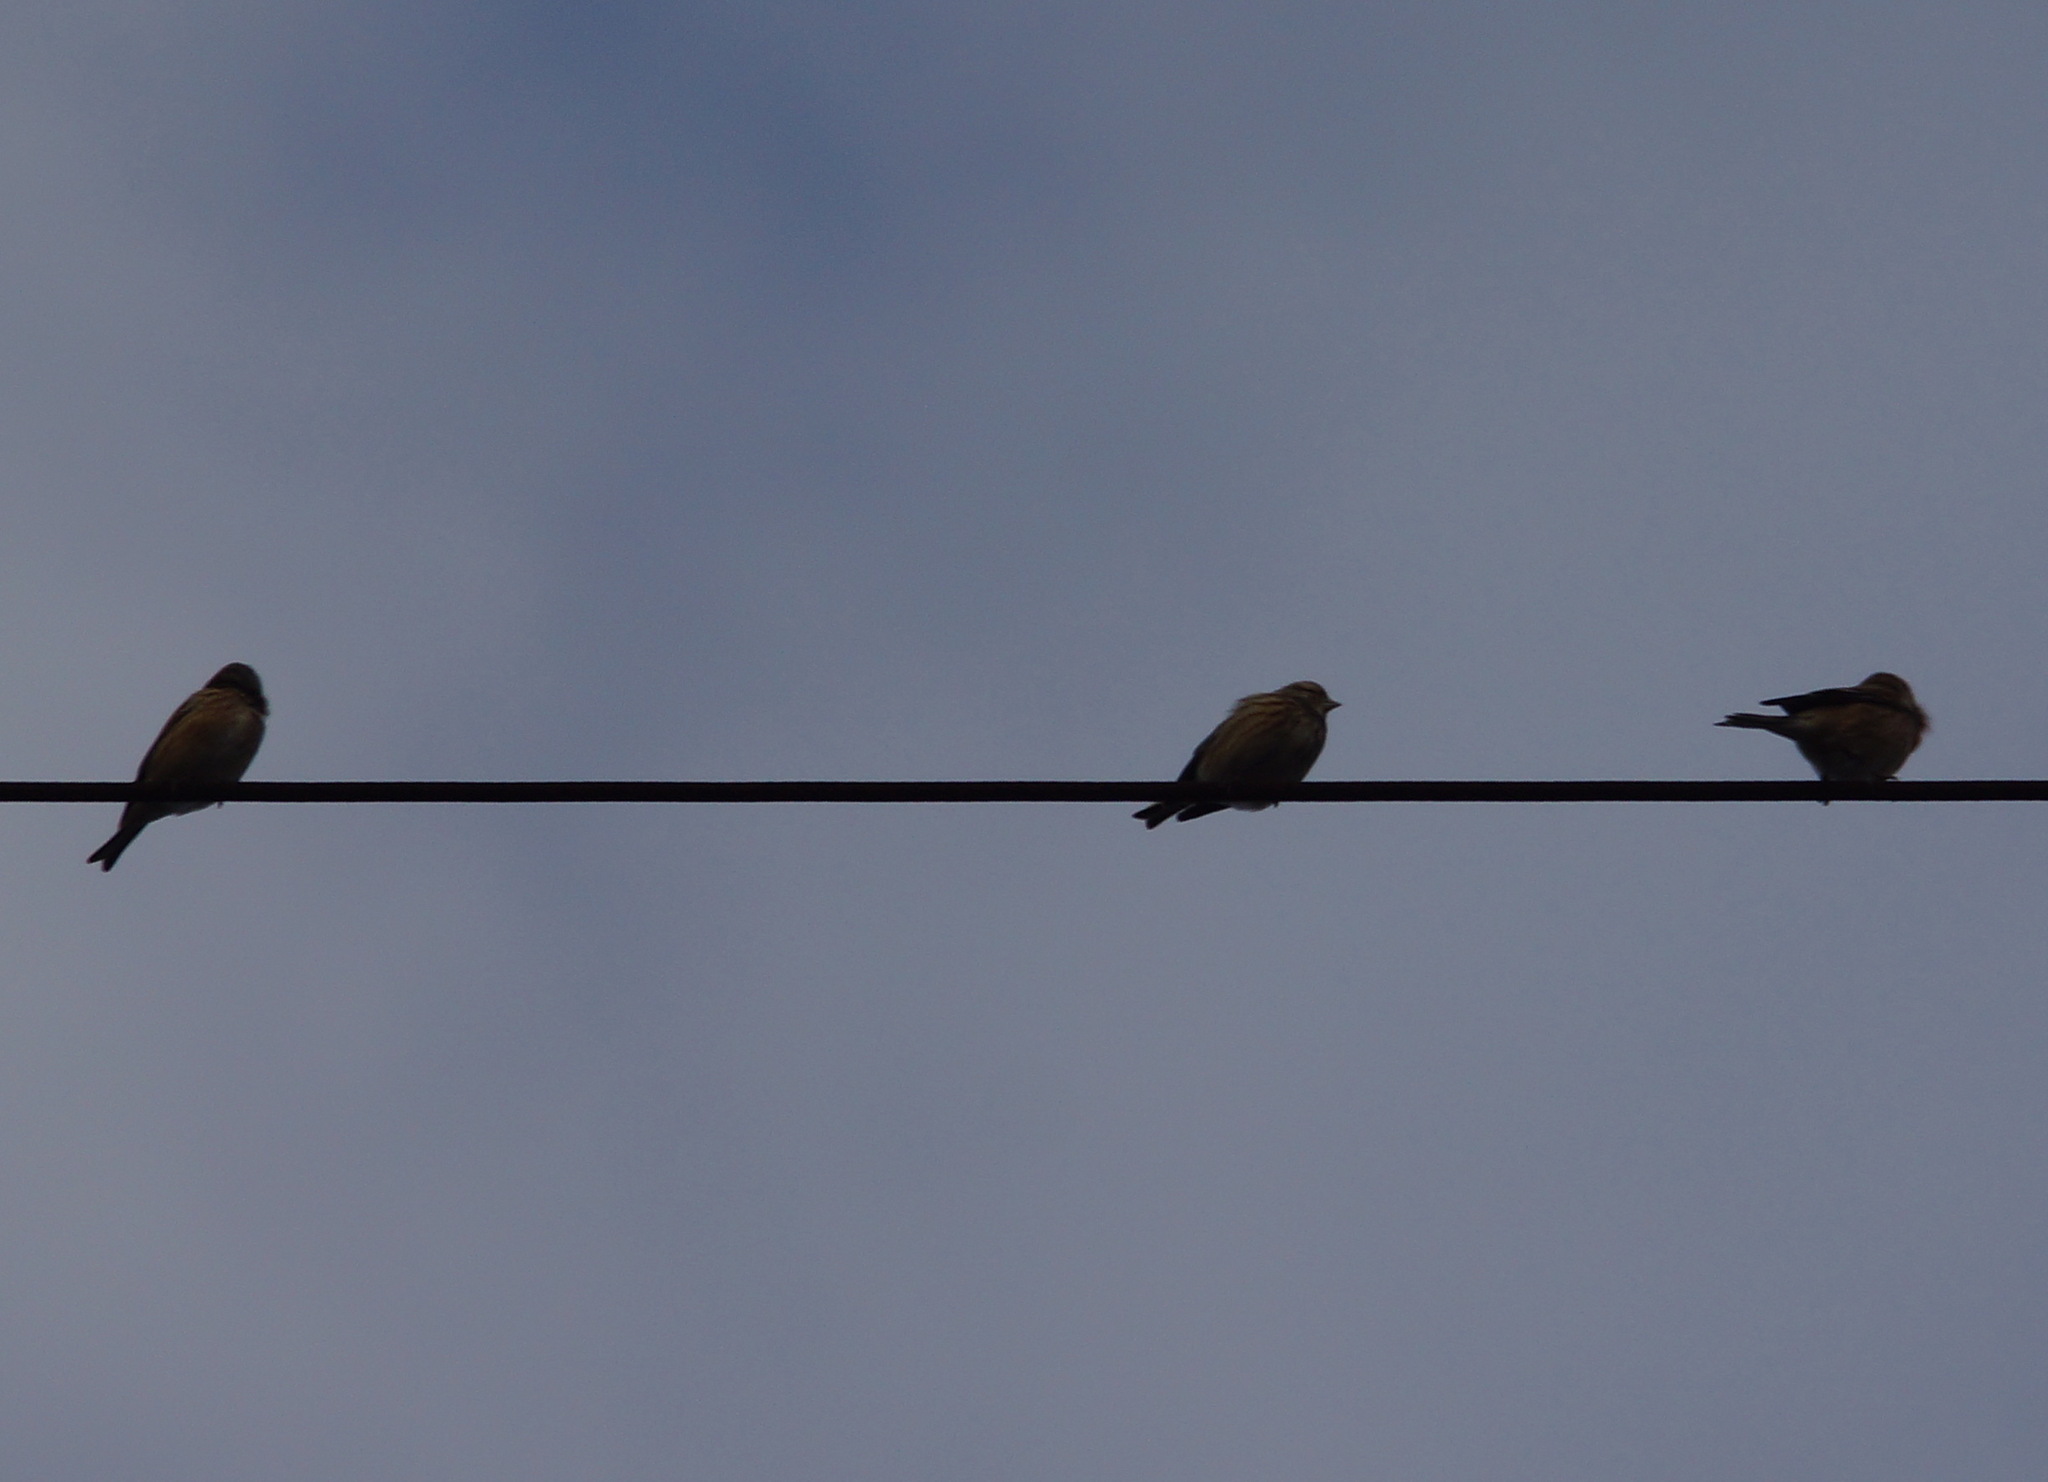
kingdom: Animalia
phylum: Chordata
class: Aves
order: Passeriformes
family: Fringillidae
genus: Linaria
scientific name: Linaria cannabina
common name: Common linnet
